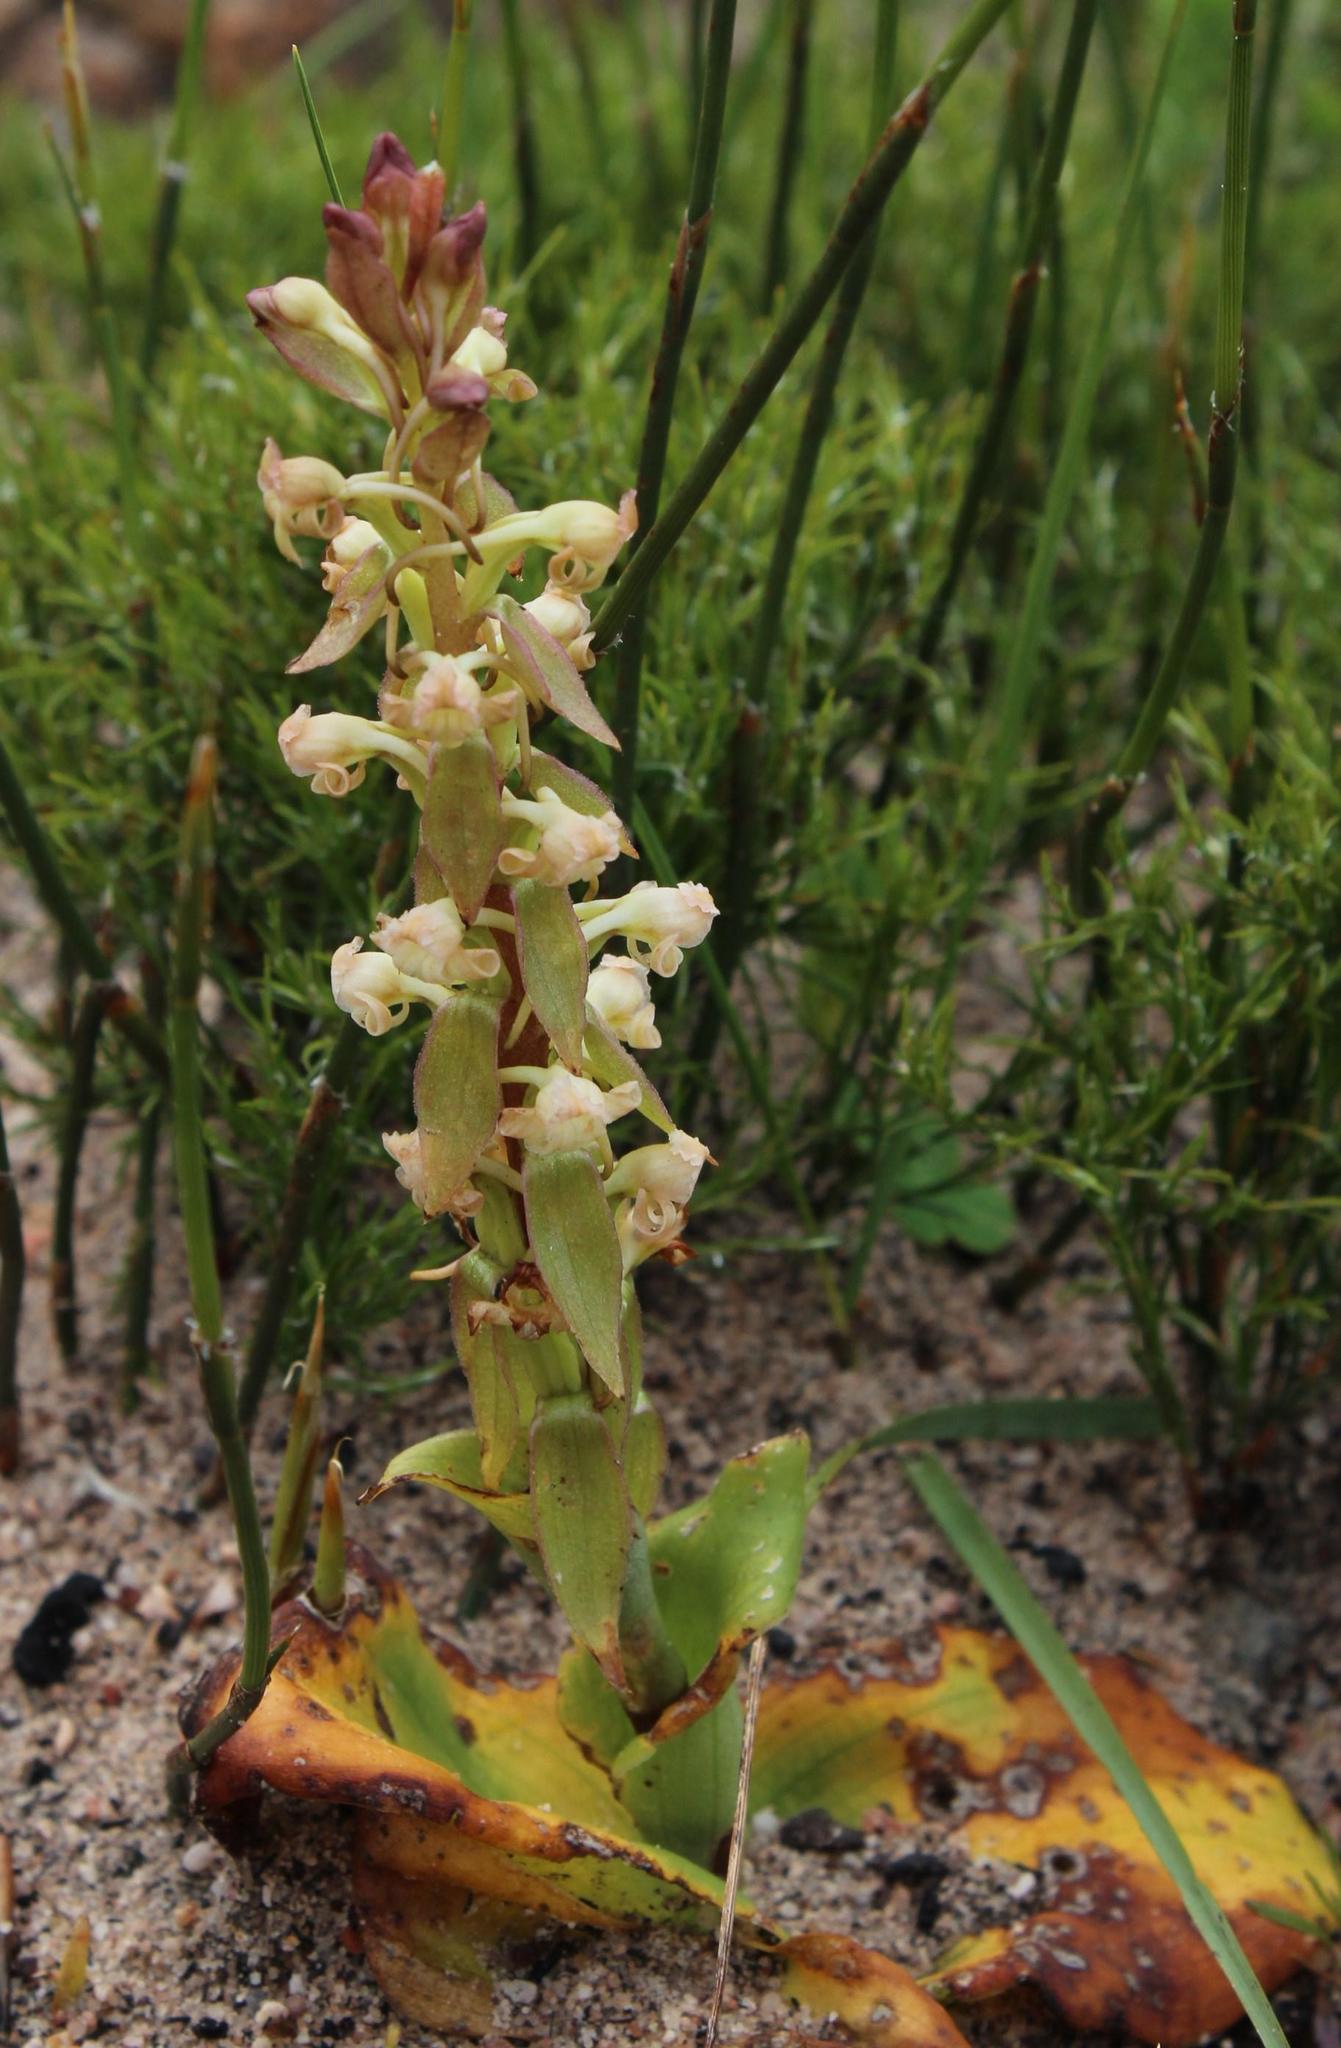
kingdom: Plantae
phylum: Tracheophyta
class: Liliopsida
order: Asparagales
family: Orchidaceae
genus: Satyrium
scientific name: Satyrium humile
